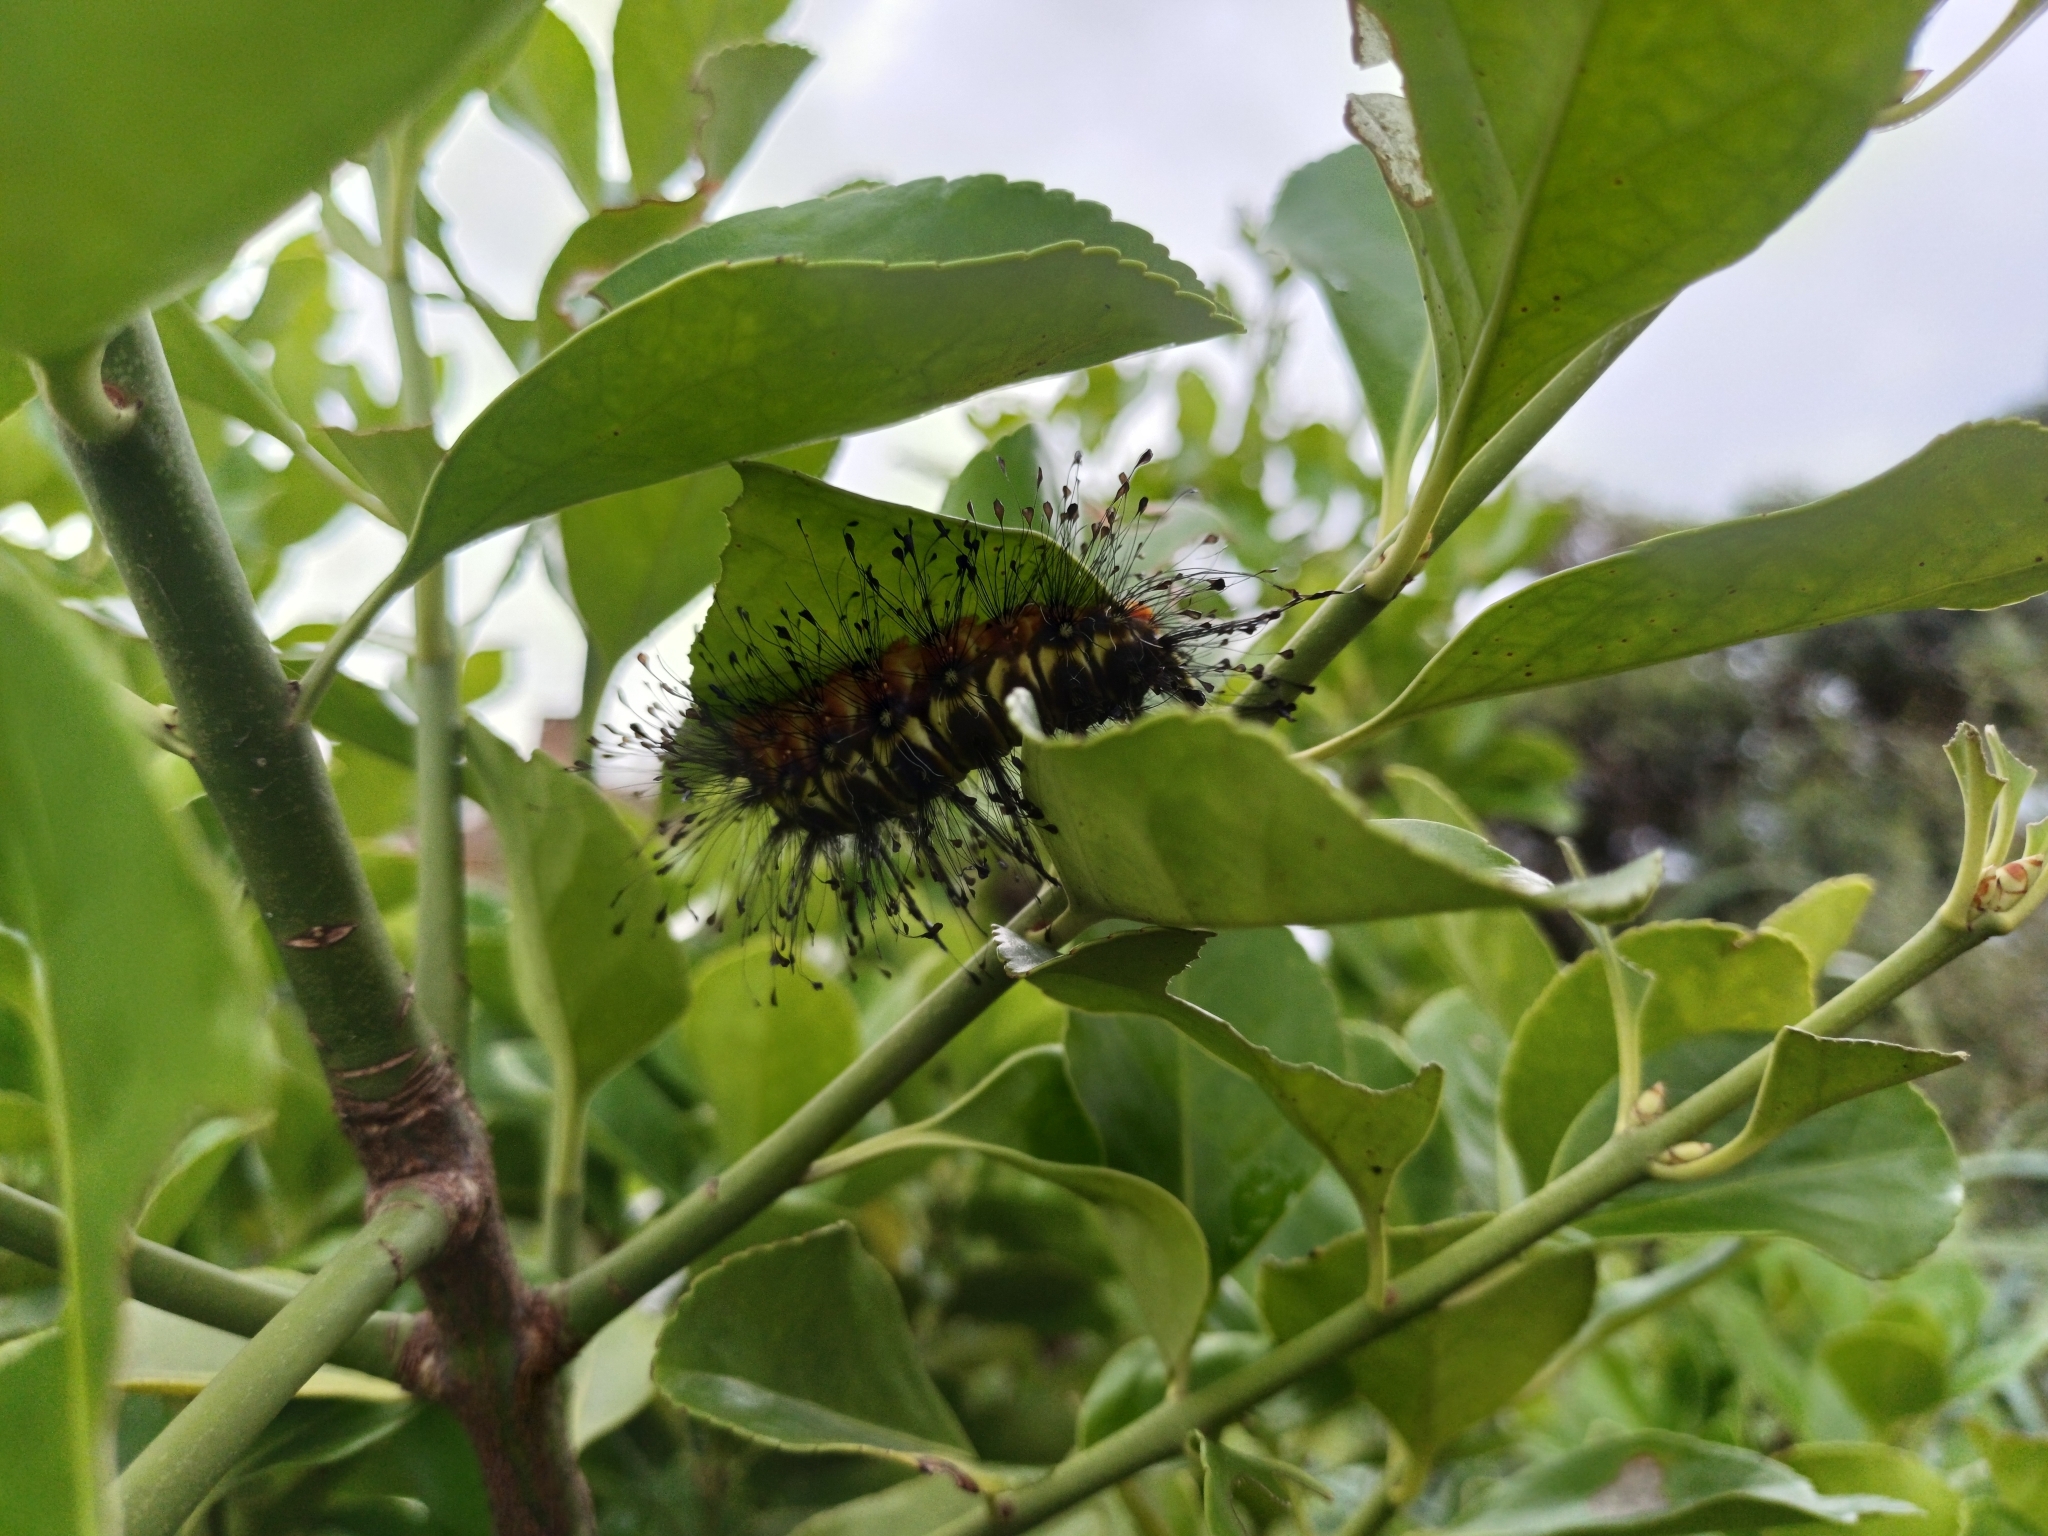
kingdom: Animalia
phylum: Arthropoda
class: Insecta
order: Lepidoptera
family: Megalopygidae
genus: Megalopyge
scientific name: Megalopyge urens
